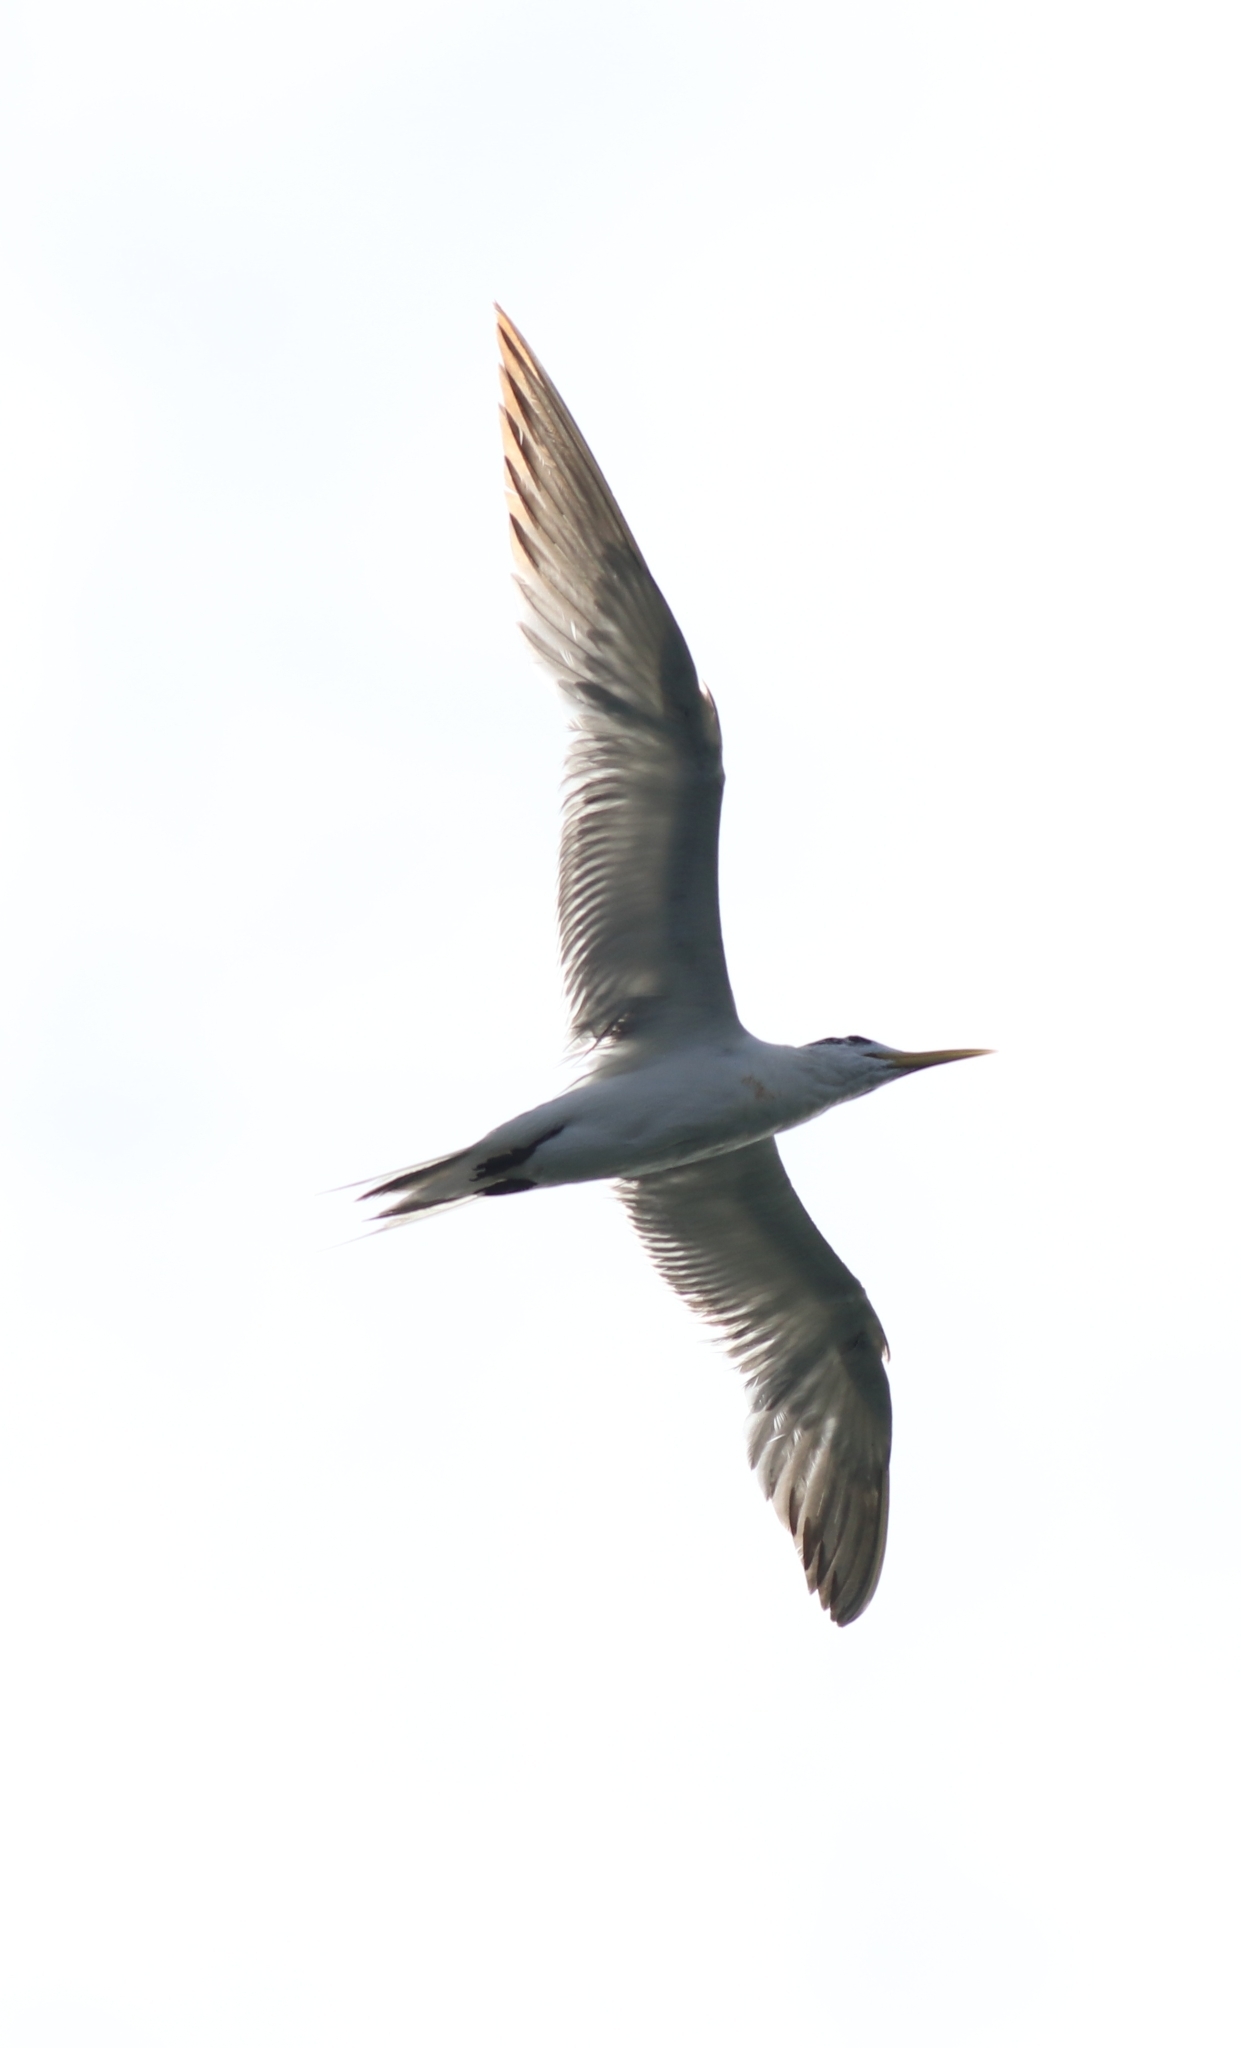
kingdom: Animalia
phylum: Chordata
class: Aves
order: Charadriiformes
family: Laridae
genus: Thalasseus
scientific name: Thalasseus bergii
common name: Greater crested tern
